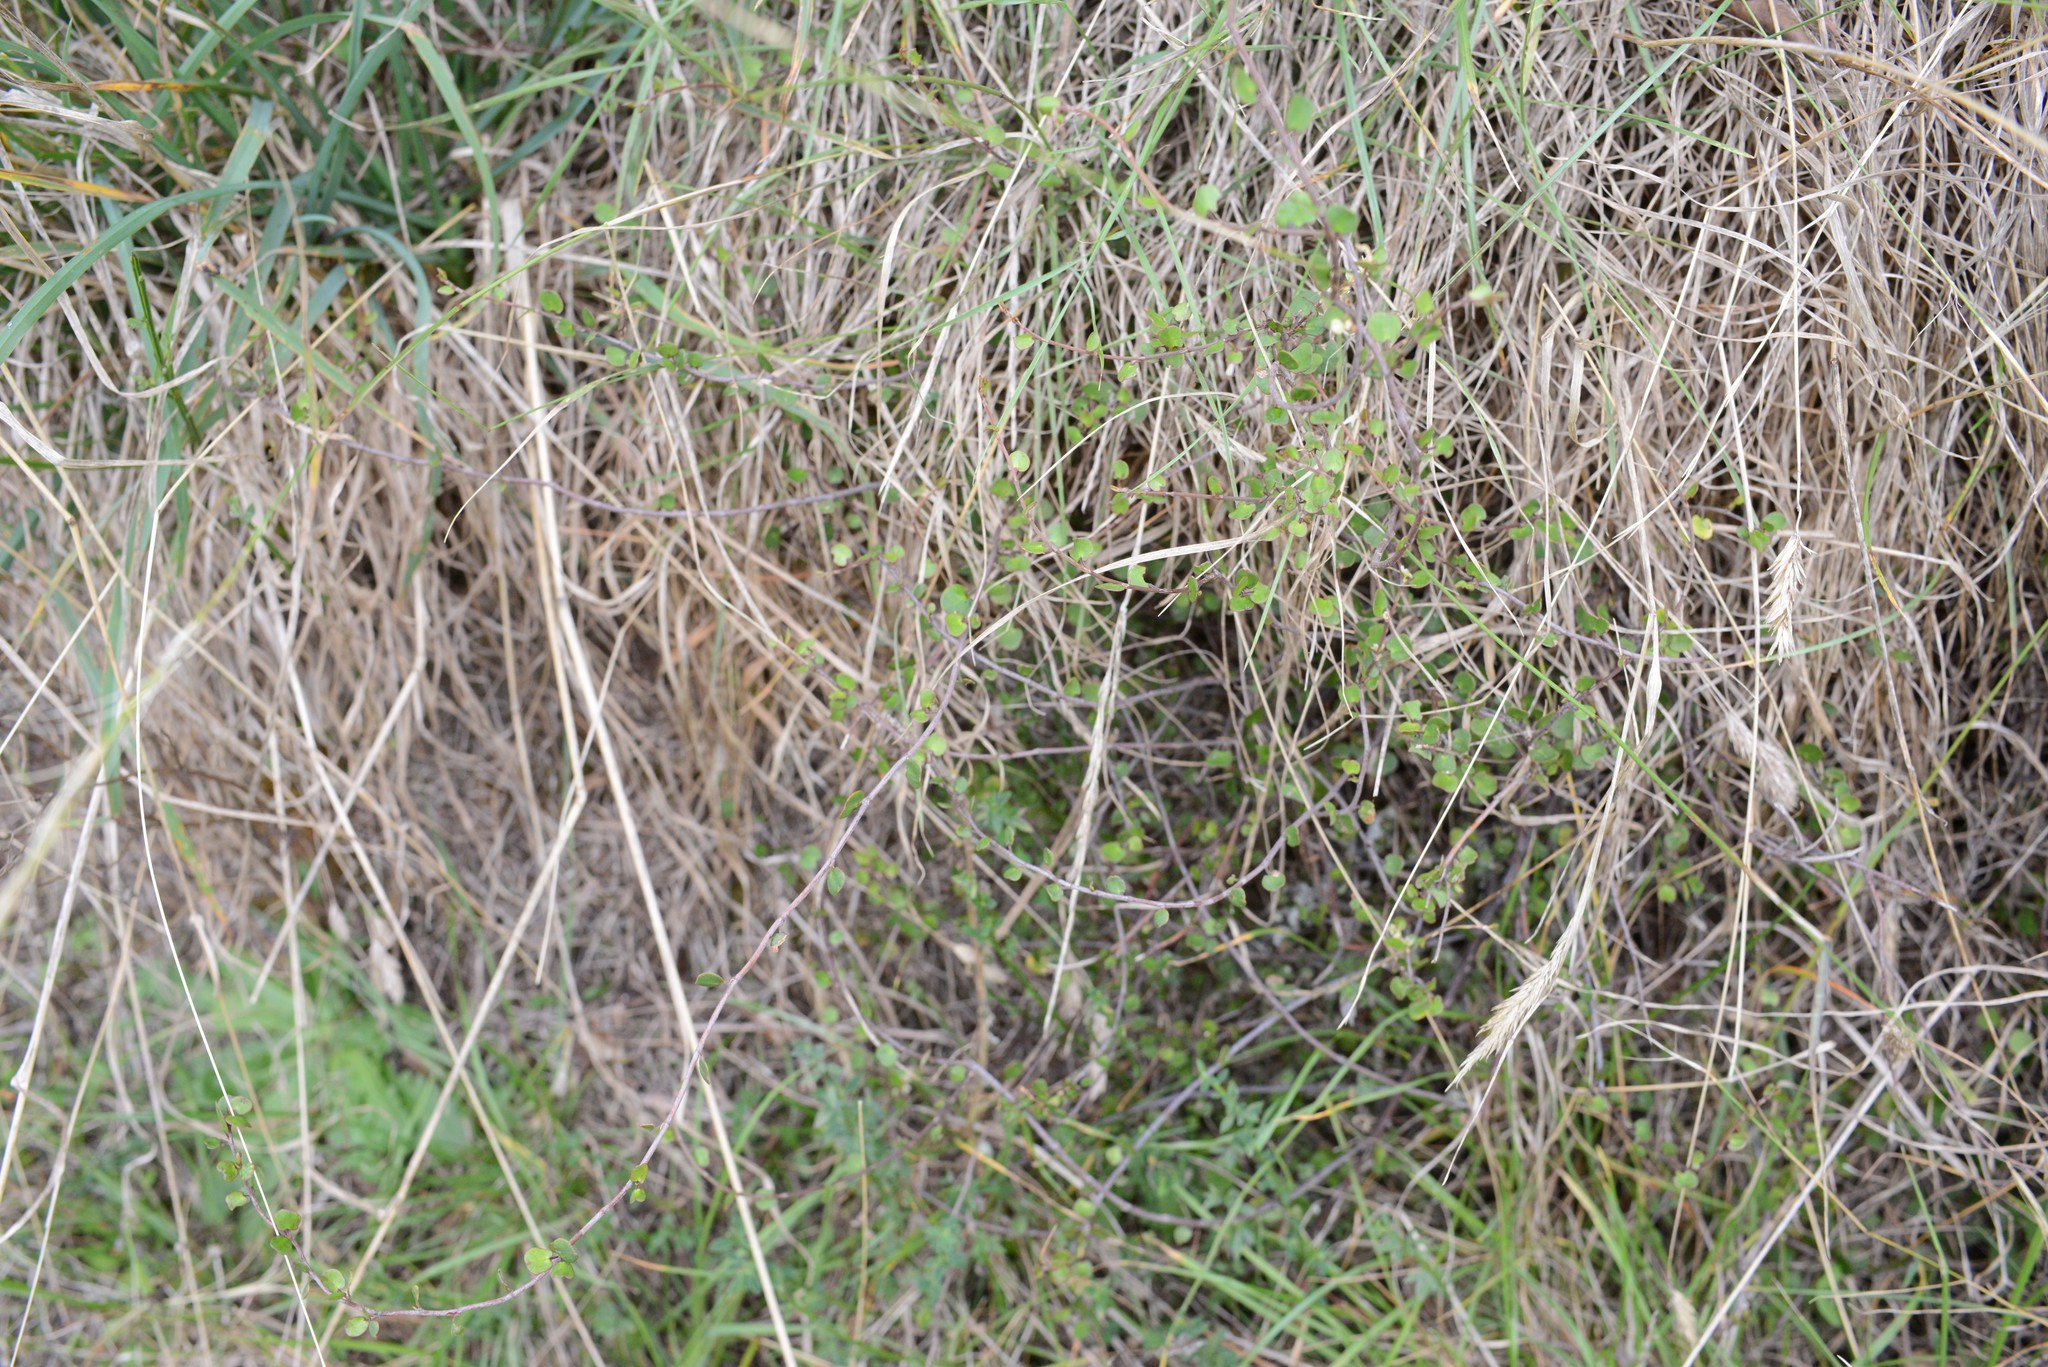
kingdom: Plantae
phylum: Tracheophyta
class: Magnoliopsida
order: Caryophyllales
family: Polygonaceae
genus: Muehlenbeckia
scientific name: Muehlenbeckia complexa
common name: Wireplant
